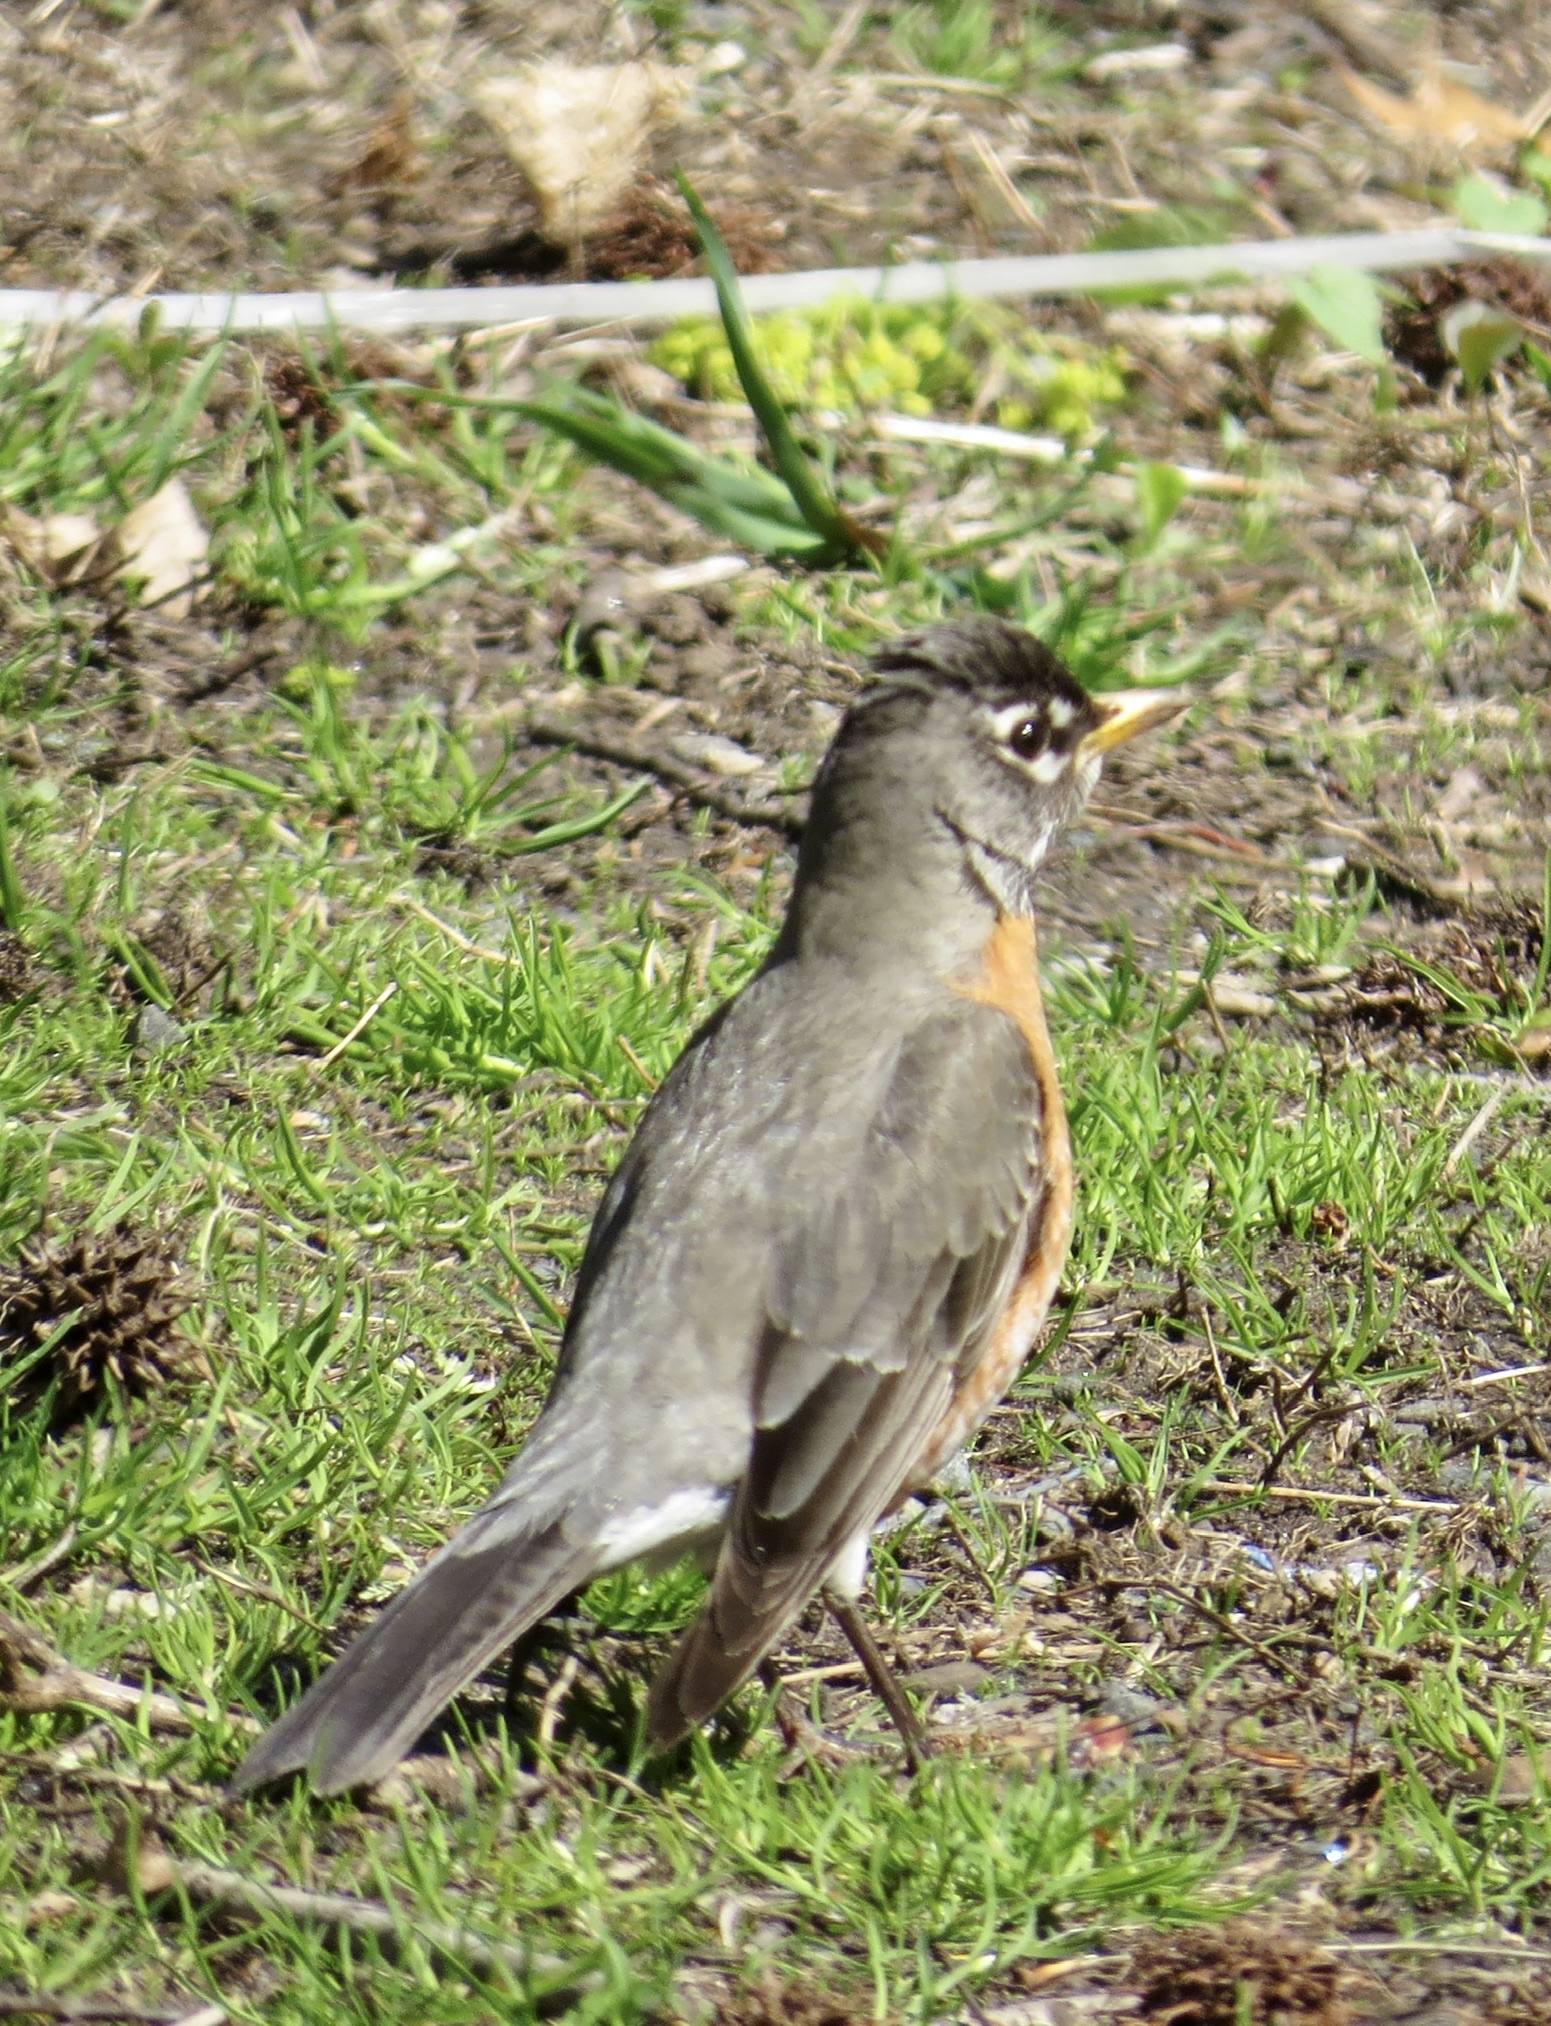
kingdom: Animalia
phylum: Chordata
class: Aves
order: Passeriformes
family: Turdidae
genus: Turdus
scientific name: Turdus migratorius
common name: American robin
